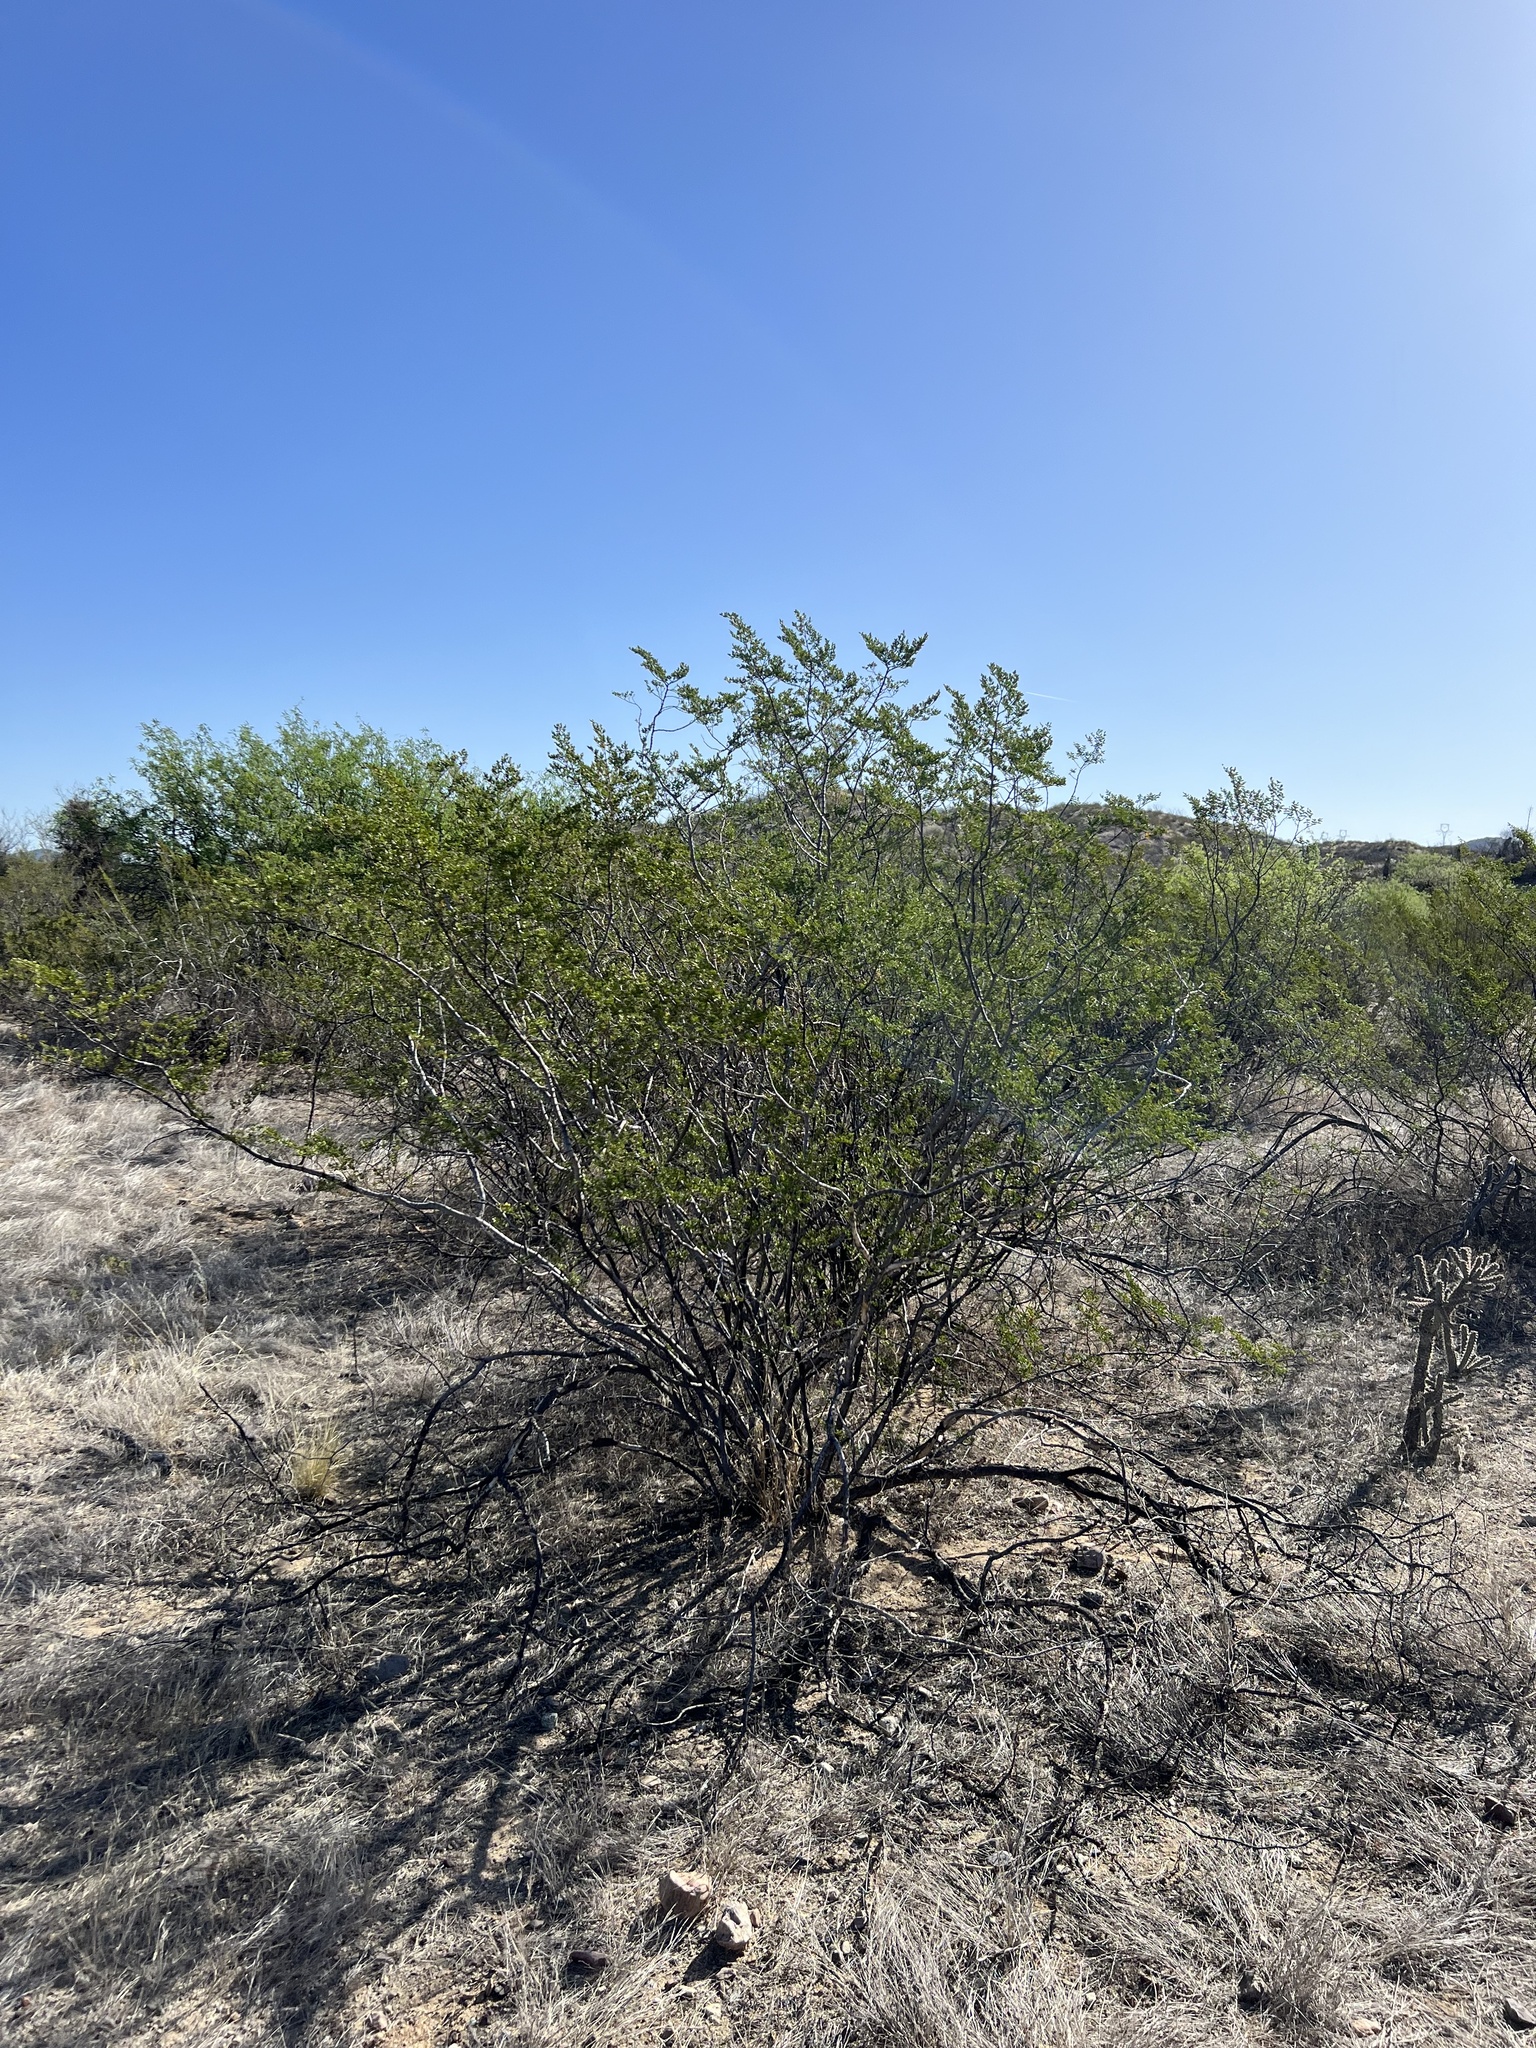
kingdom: Plantae
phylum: Tracheophyta
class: Magnoliopsida
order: Zygophyllales
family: Zygophyllaceae
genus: Larrea
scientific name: Larrea tridentata
